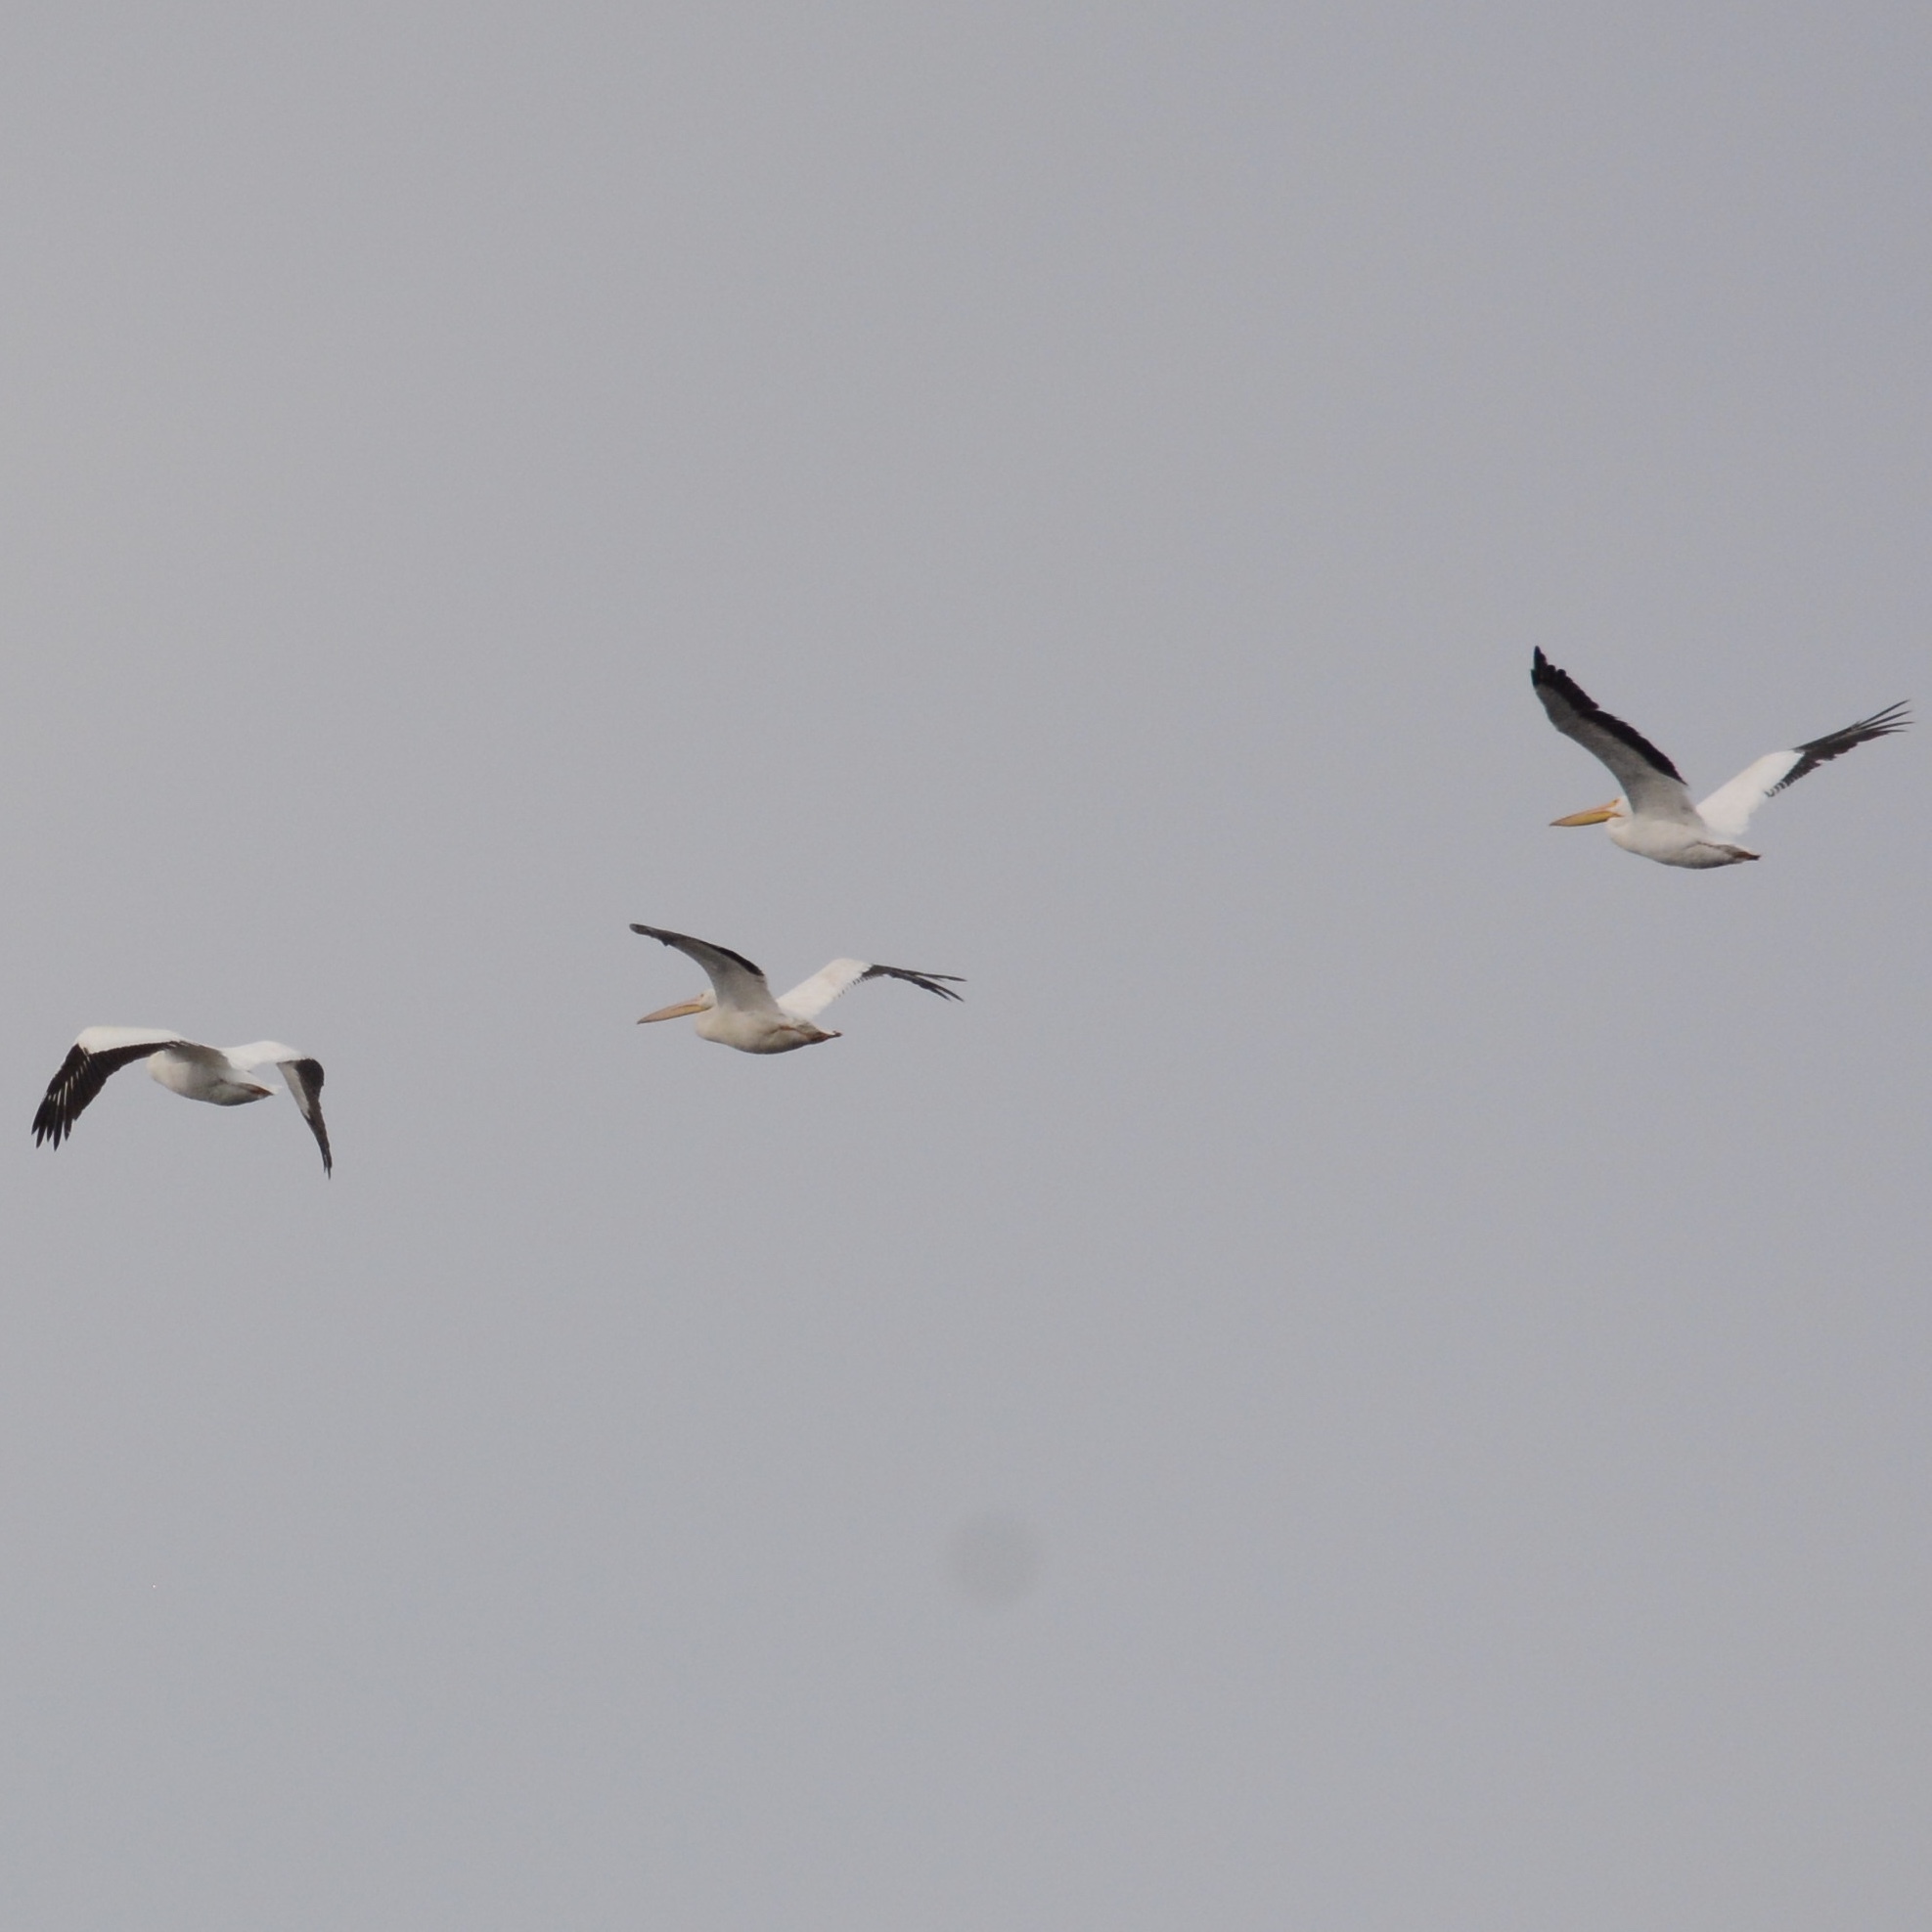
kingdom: Animalia
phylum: Chordata
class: Aves
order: Pelecaniformes
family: Pelecanidae
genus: Pelecanus
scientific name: Pelecanus erythrorhynchos
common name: American white pelican
